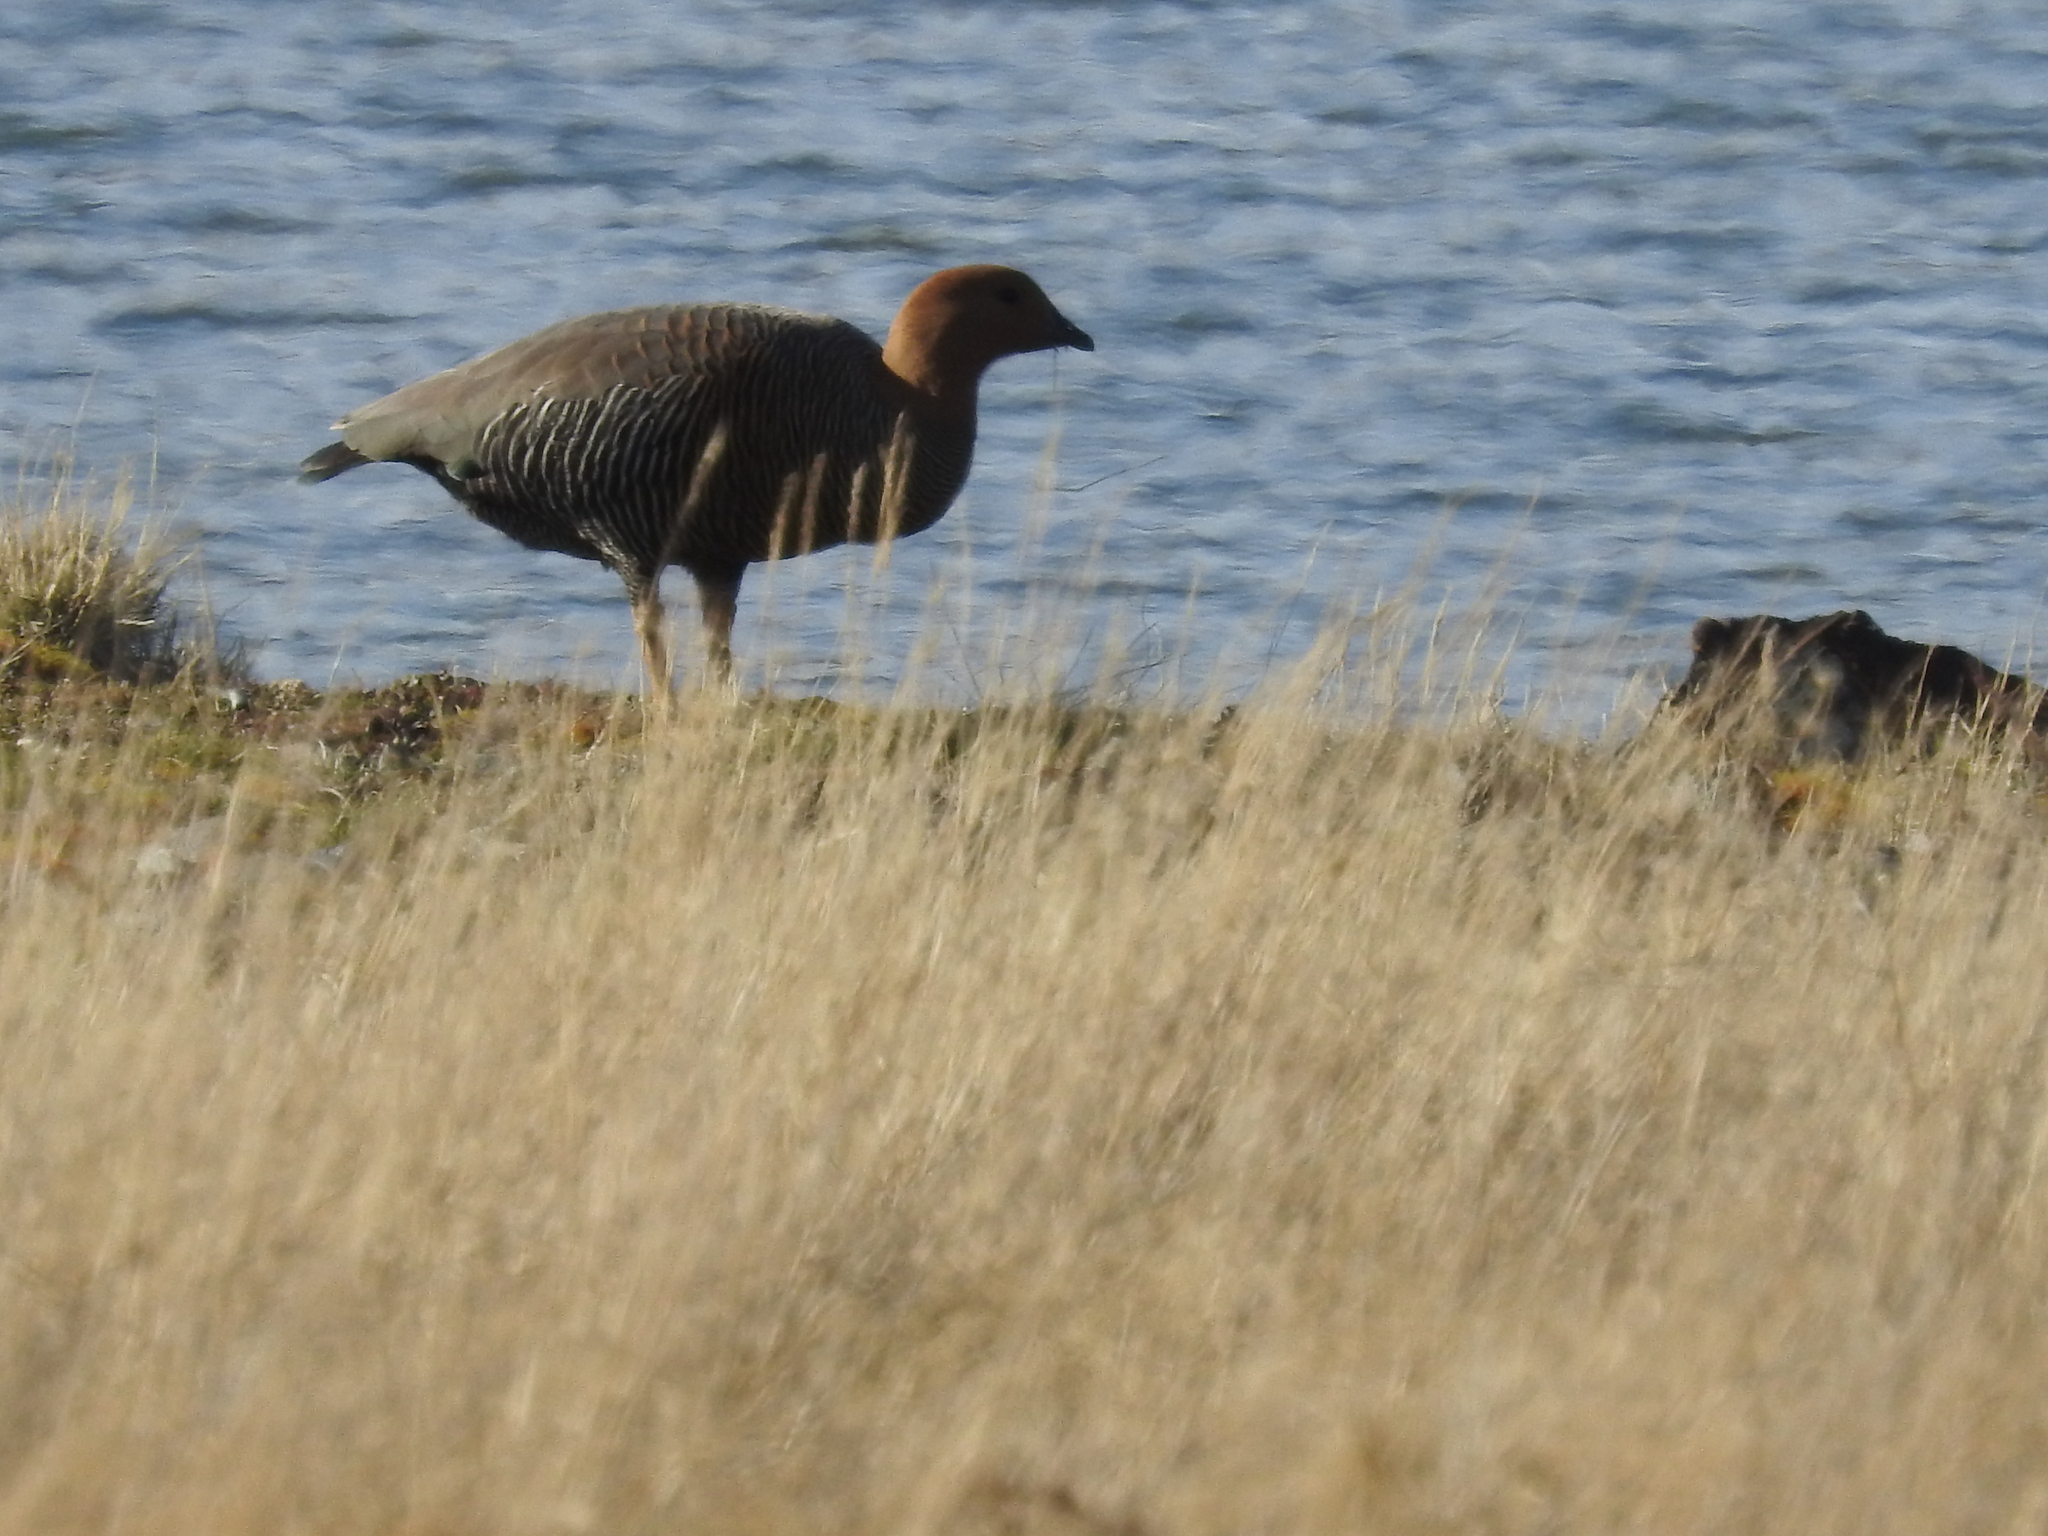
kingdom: Animalia
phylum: Chordata
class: Aves
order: Anseriformes
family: Anatidae
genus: Chloephaga
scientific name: Chloephaga picta
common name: Upland goose
